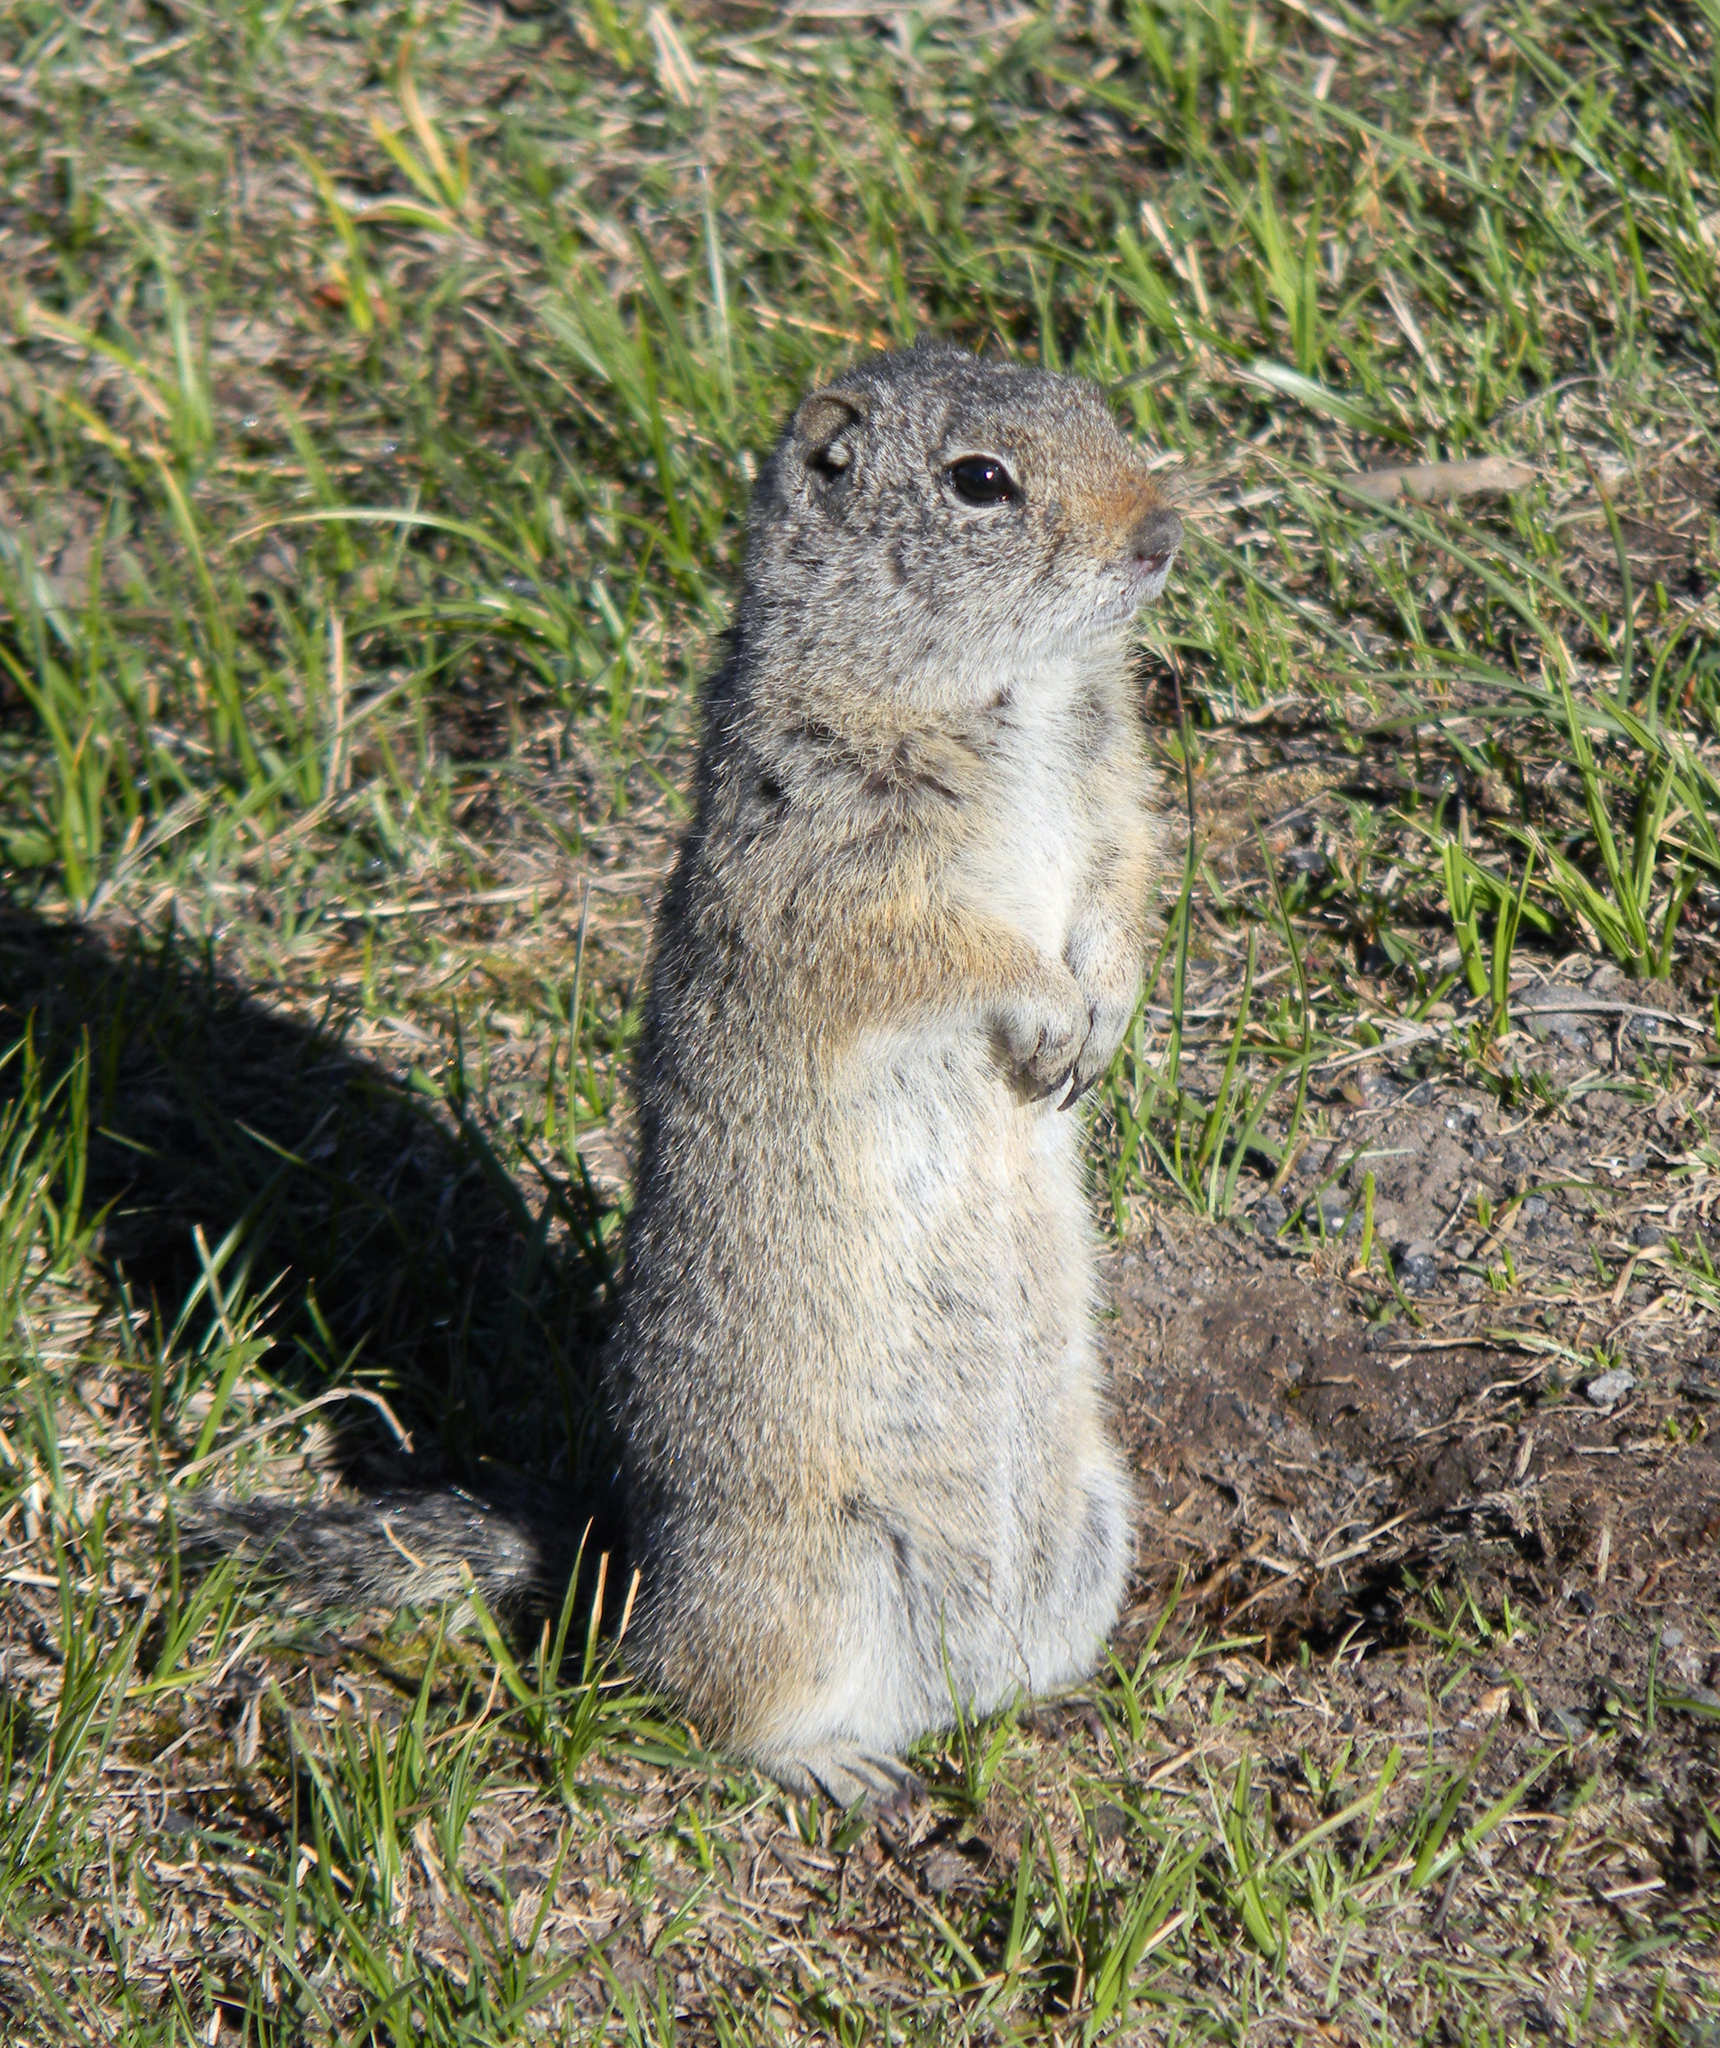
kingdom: Animalia
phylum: Chordata
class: Mammalia
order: Rodentia
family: Sciuridae
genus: Urocitellus
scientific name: Urocitellus armatus
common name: Uinta ground squirrel
